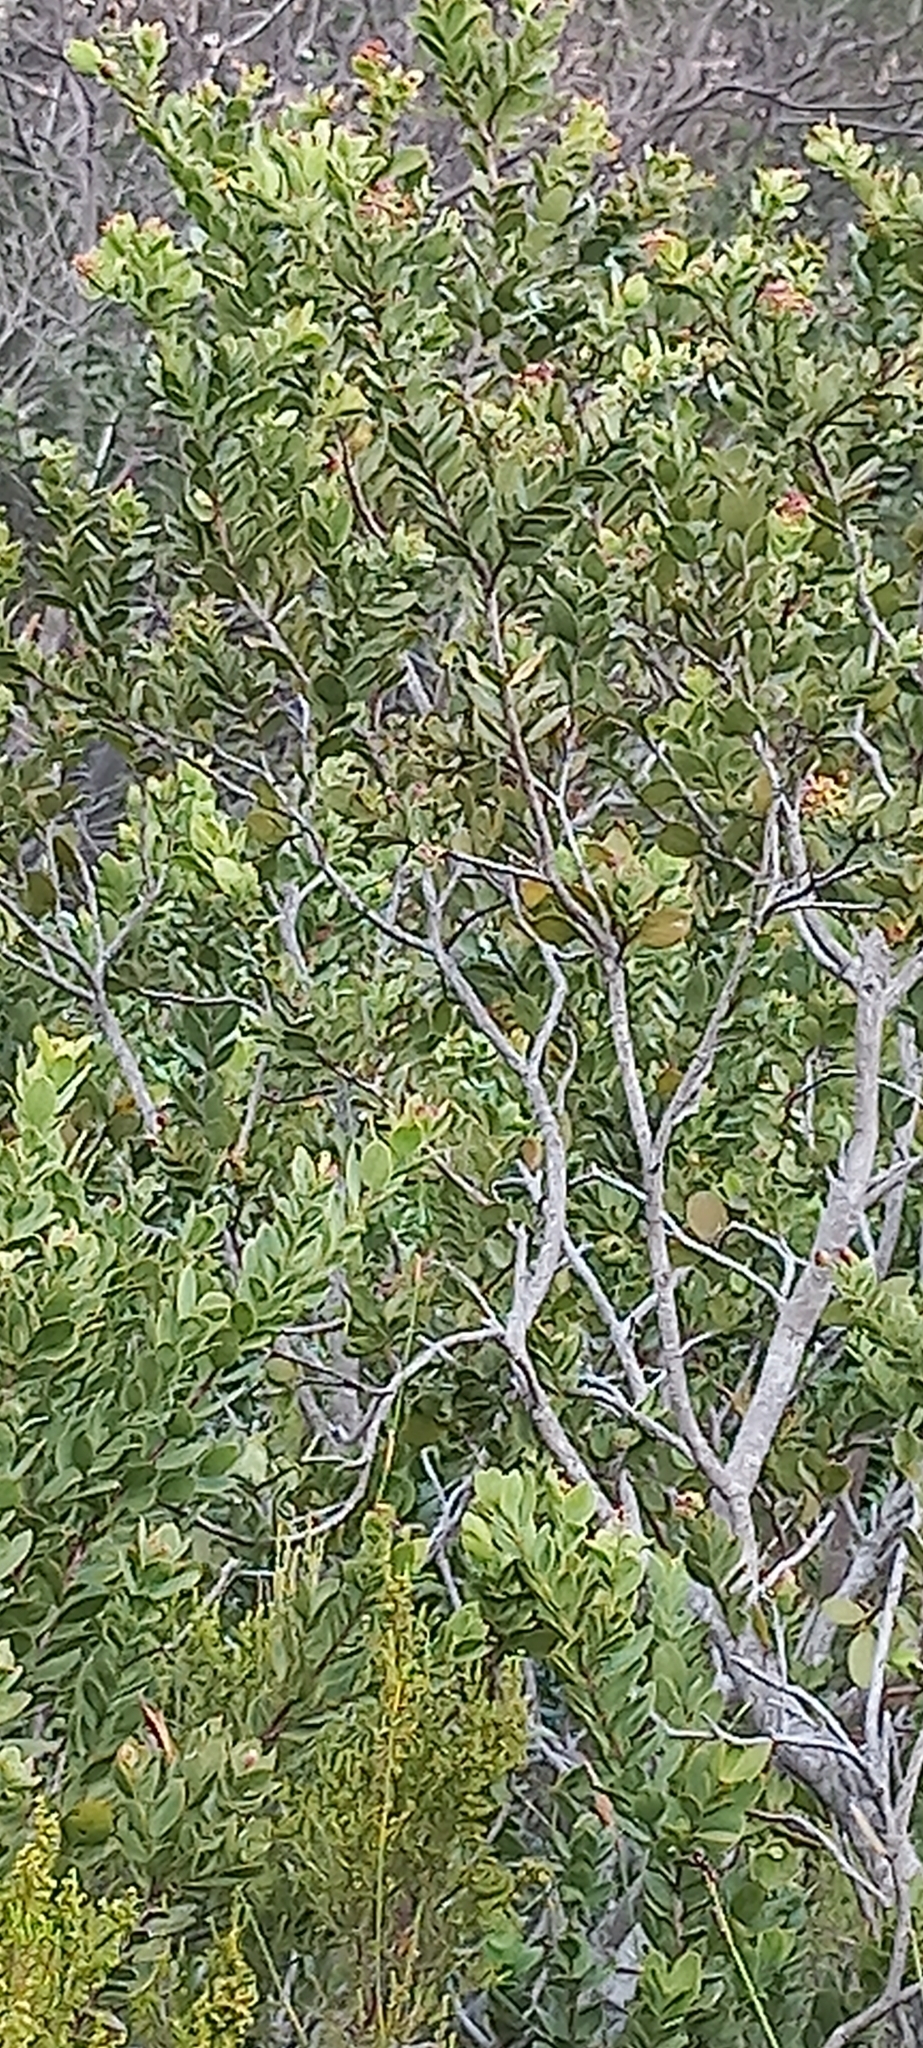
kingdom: Plantae
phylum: Tracheophyta
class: Magnoliopsida
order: Santalales
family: Santalaceae
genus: Osyris
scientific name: Osyris compressa
